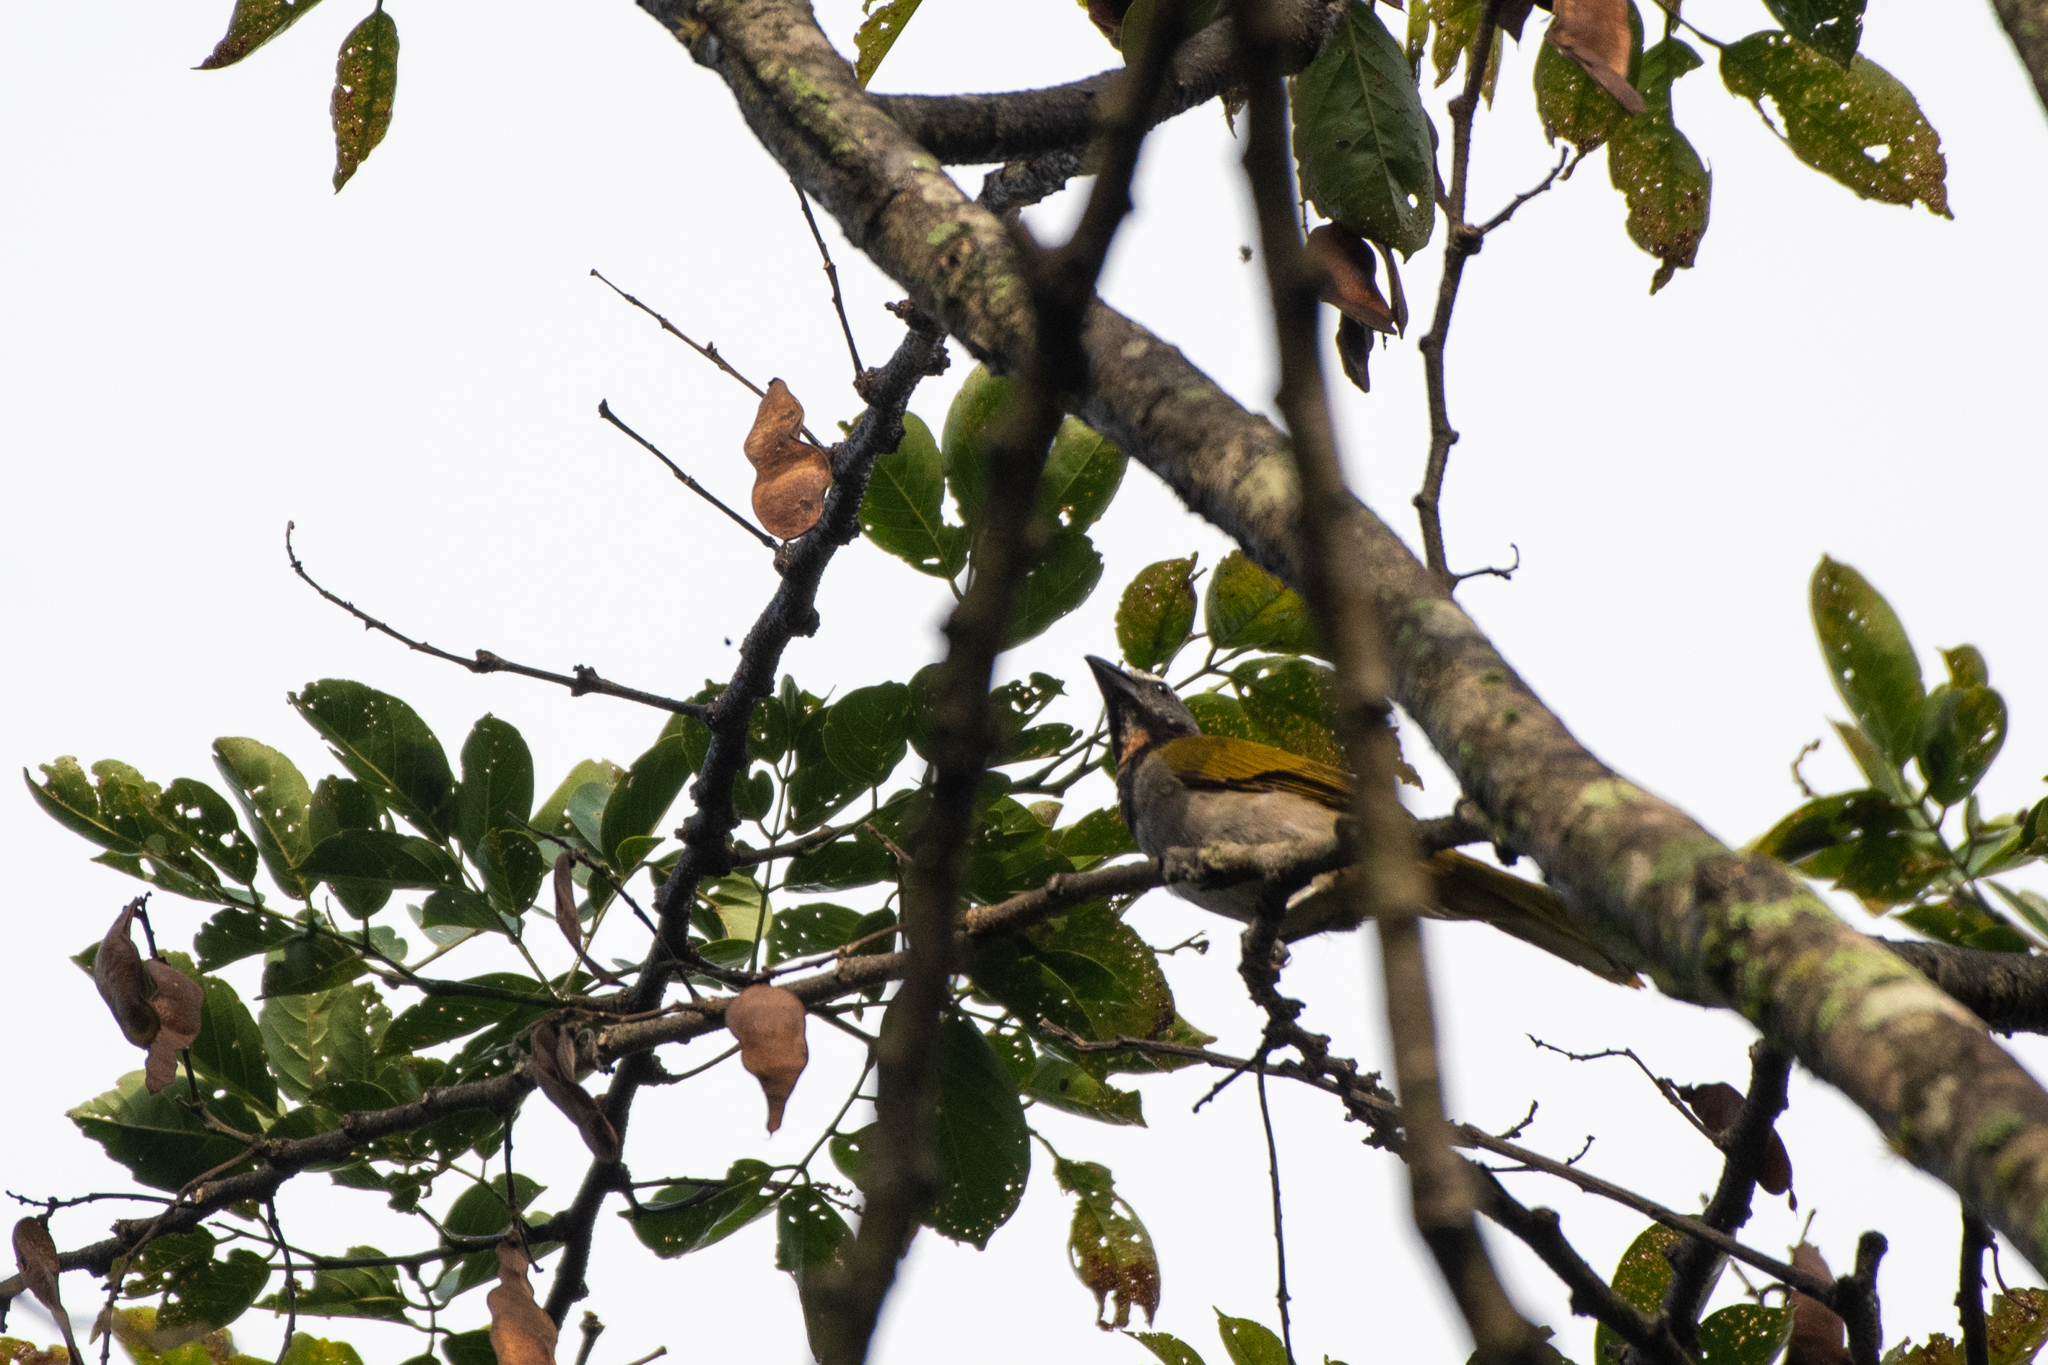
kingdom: Animalia
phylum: Chordata
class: Aves
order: Passeriformes
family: Thraupidae
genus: Saltator
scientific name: Saltator maximus
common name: Buff-throated saltator
